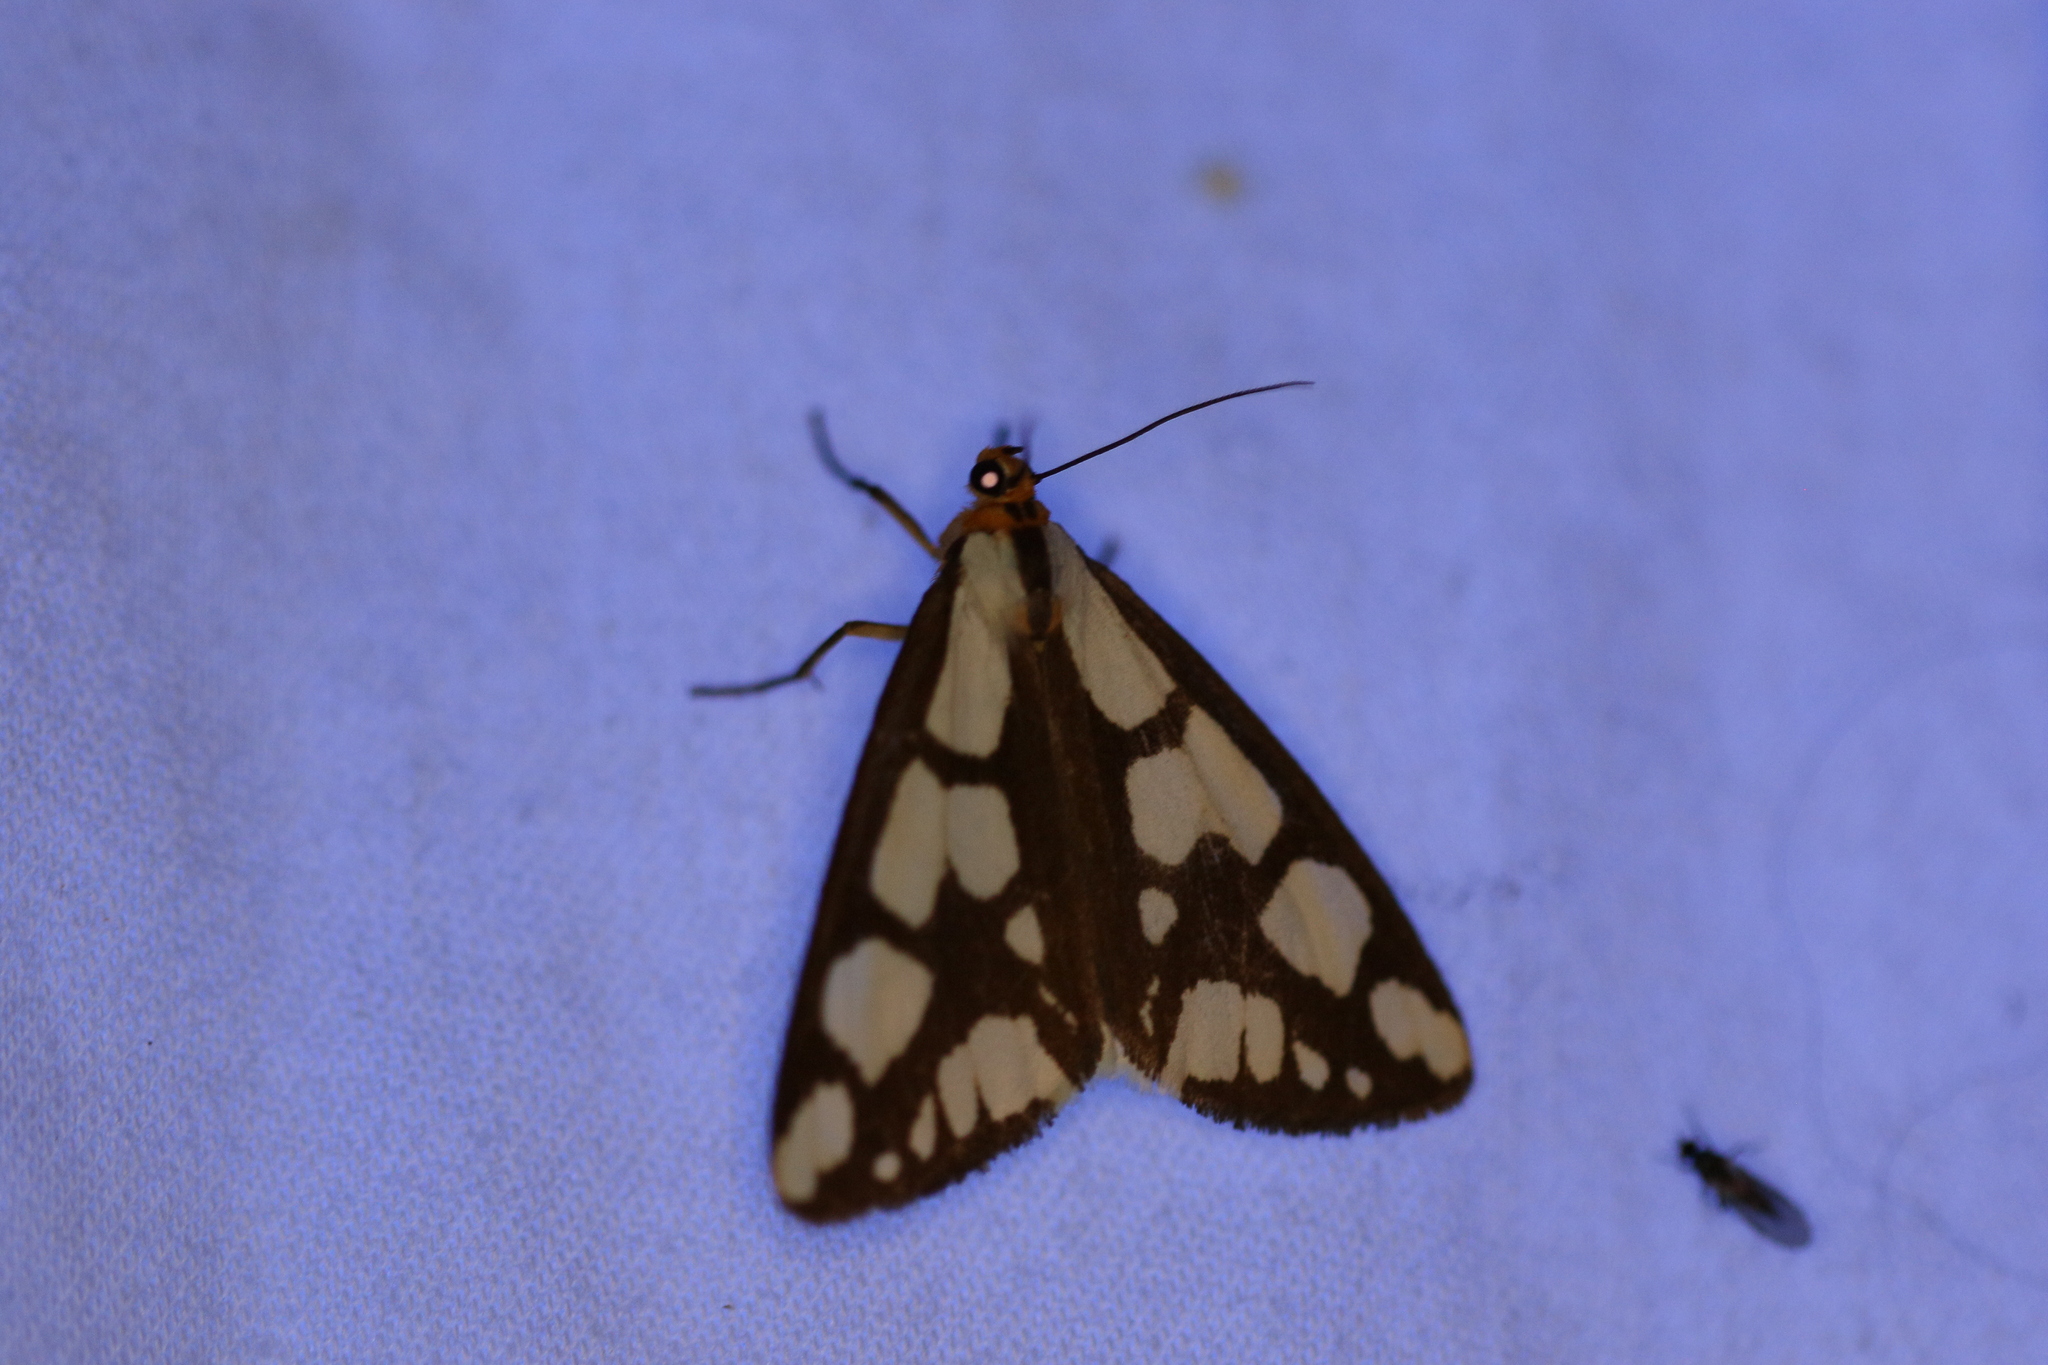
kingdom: Animalia
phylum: Arthropoda
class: Insecta
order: Lepidoptera
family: Erebidae
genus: Haploa
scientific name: Haploa confusa
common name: Confused haploa moth
